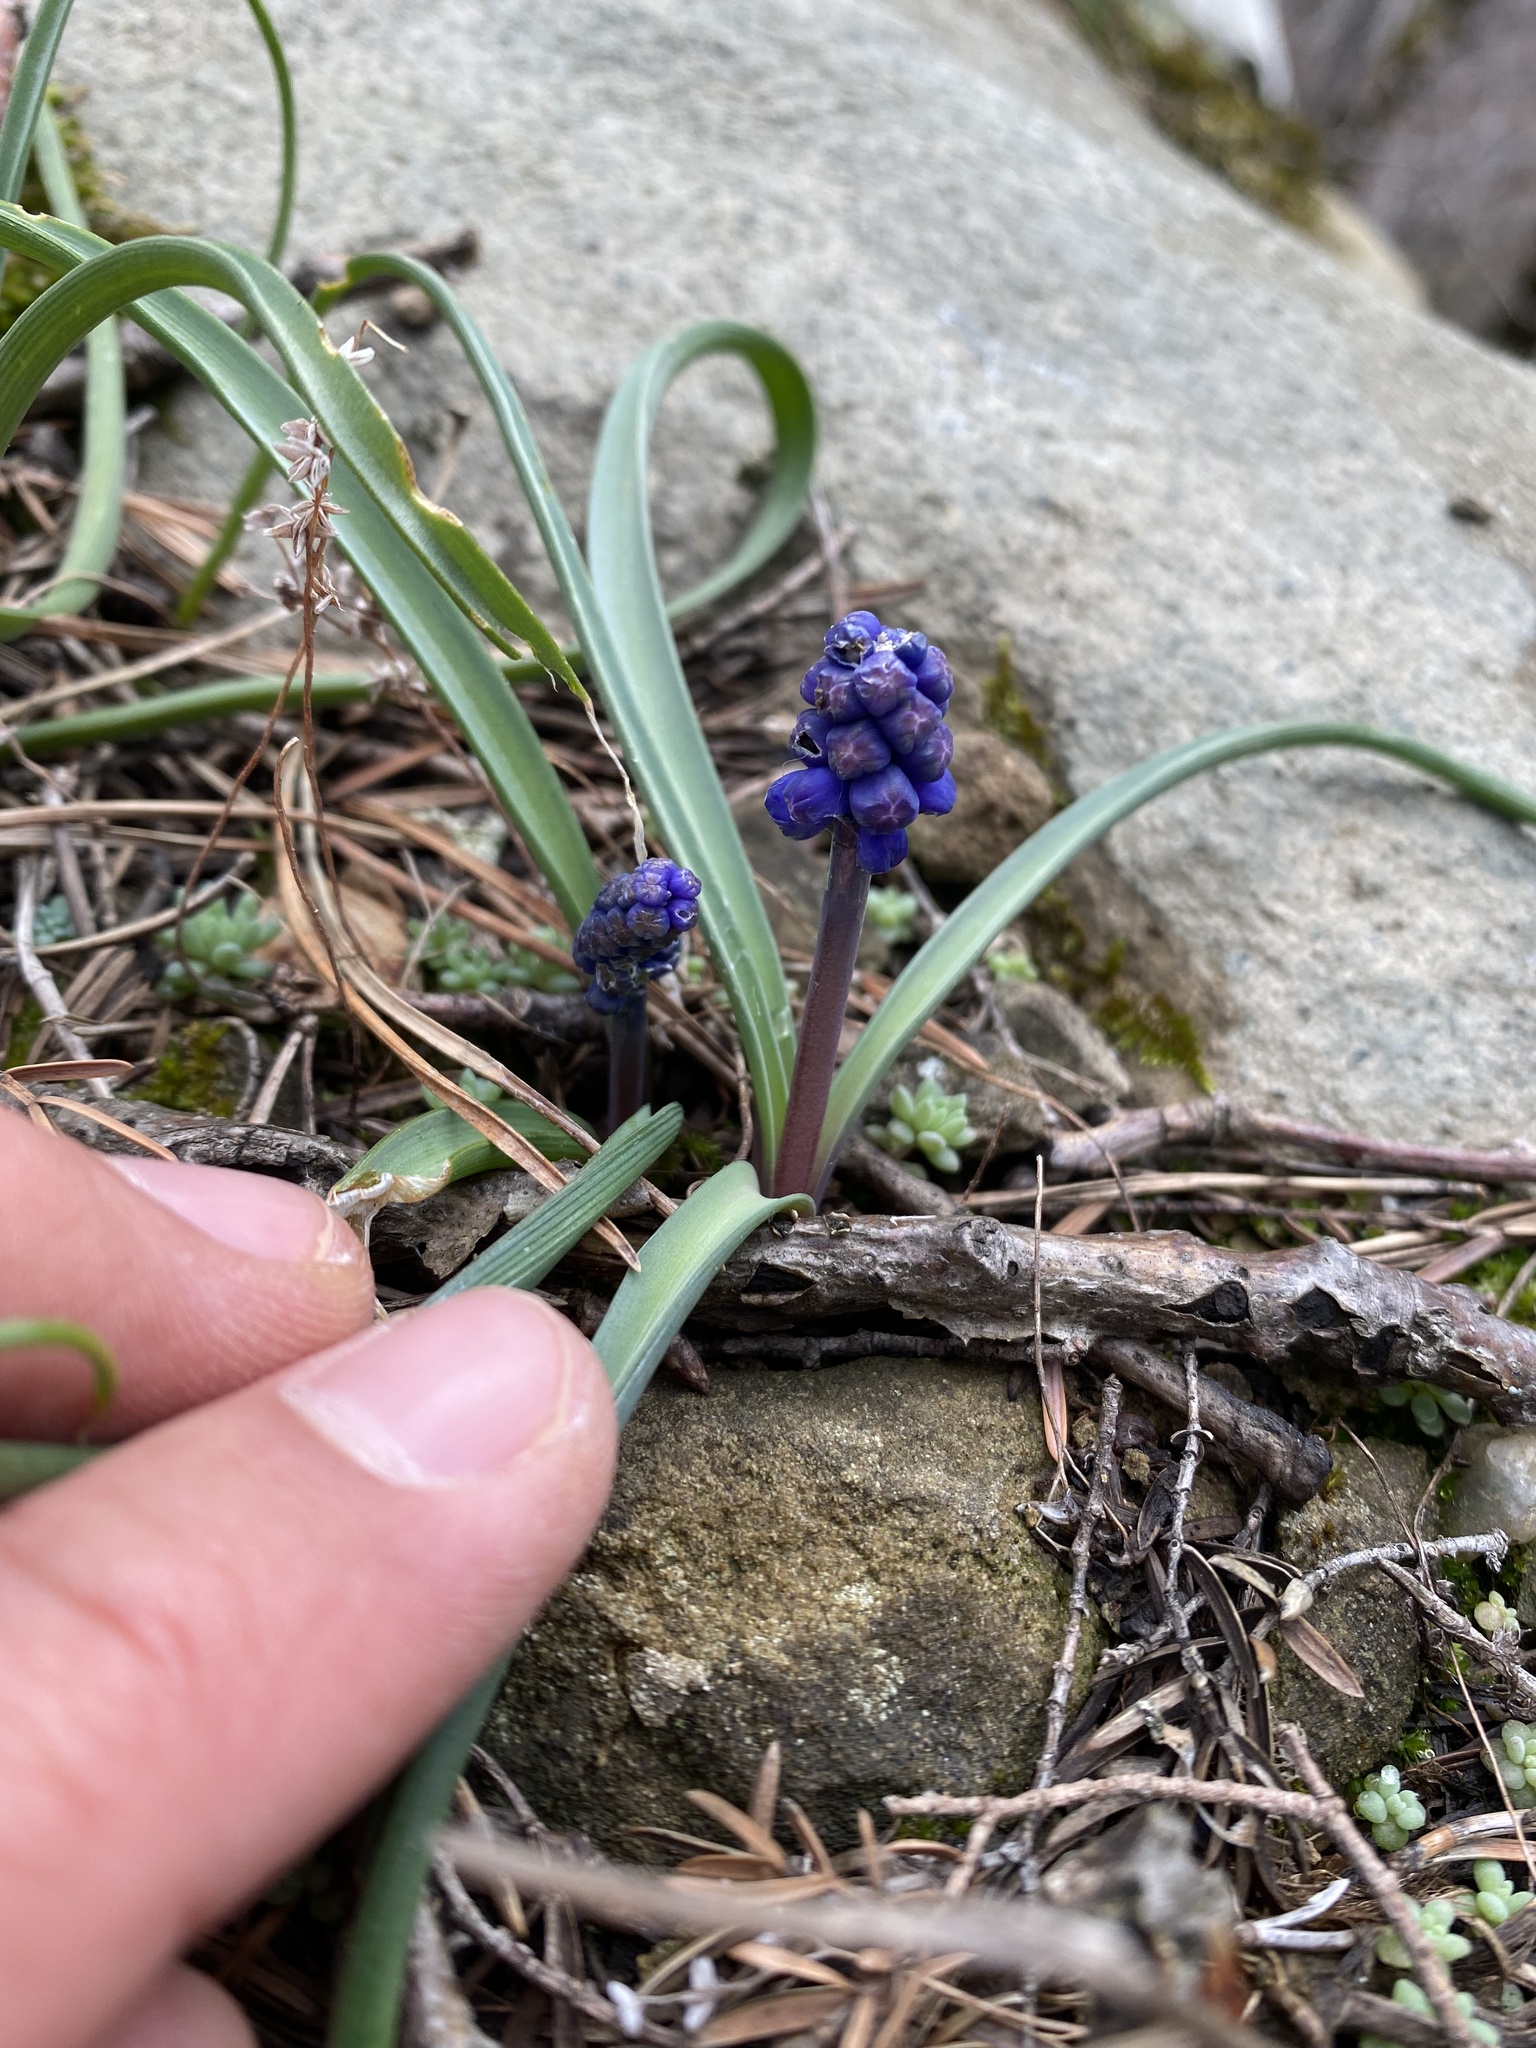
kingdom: Plantae
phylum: Tracheophyta
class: Liliopsida
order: Asparagales
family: Asparagaceae
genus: Muscari
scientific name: Muscari neglectum
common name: Grape-hyacinth
